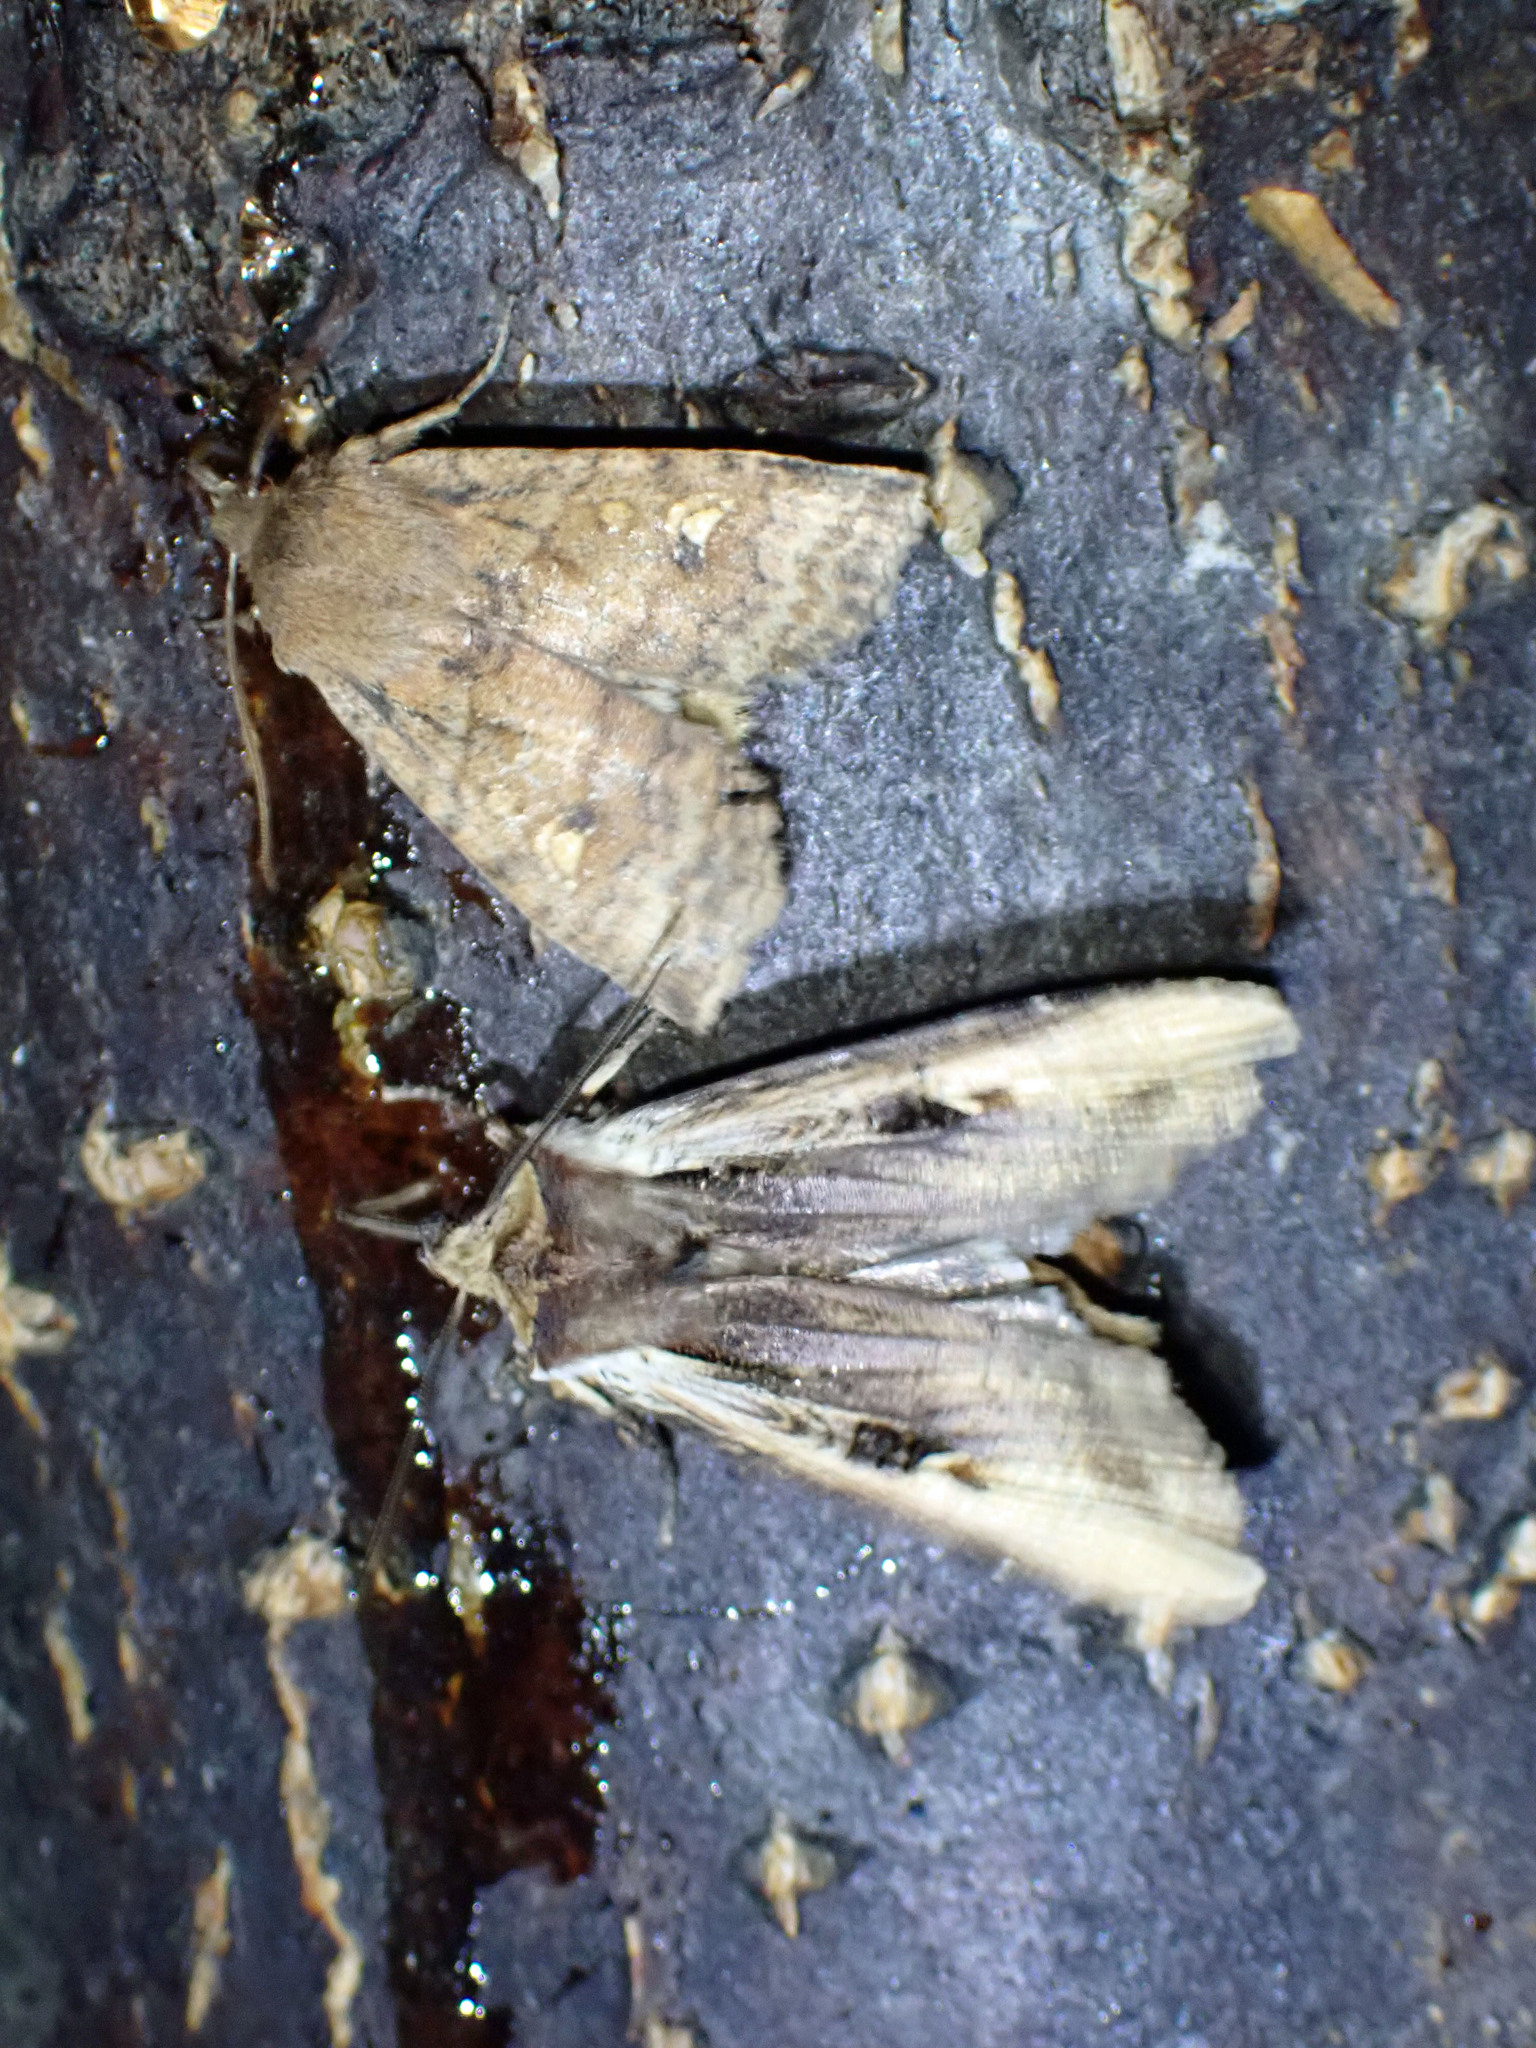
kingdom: Animalia
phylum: Arthropoda
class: Insecta
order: Lepidoptera
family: Noctuidae
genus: Xylena
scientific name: Xylena curvimacula
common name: Dot-and-dash swordgrass moth
